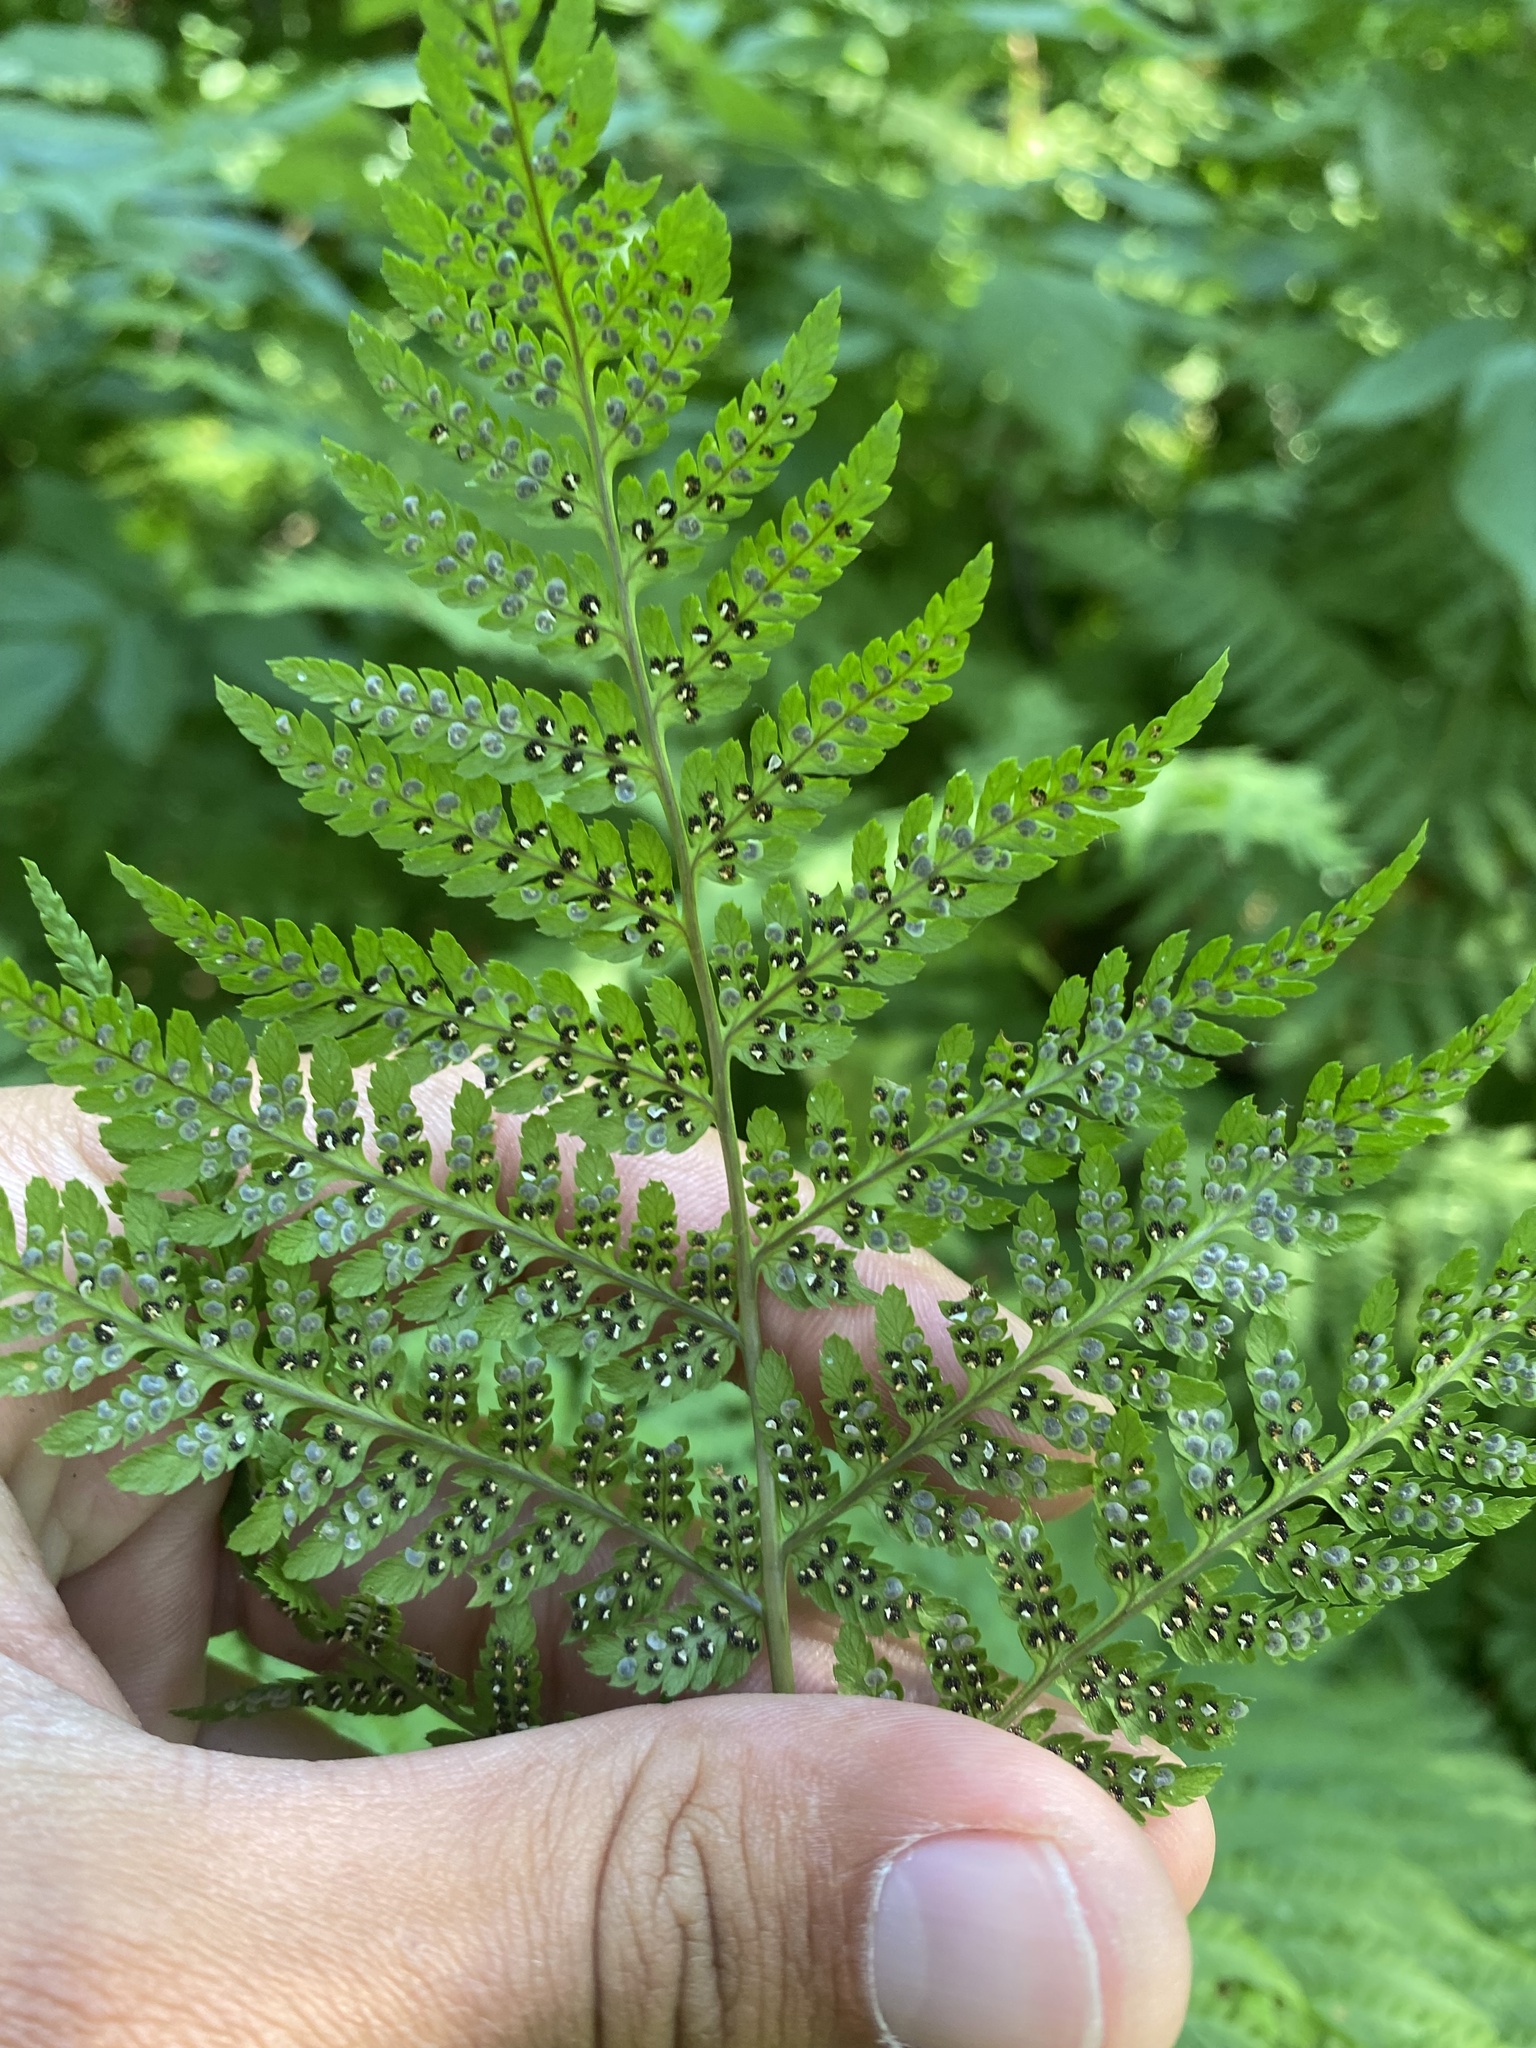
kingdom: Plantae
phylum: Tracheophyta
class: Polypodiopsida
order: Polypodiales
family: Dryopteridaceae
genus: Dryopteris
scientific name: Dryopteris expansa
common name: Northern buckler fern
